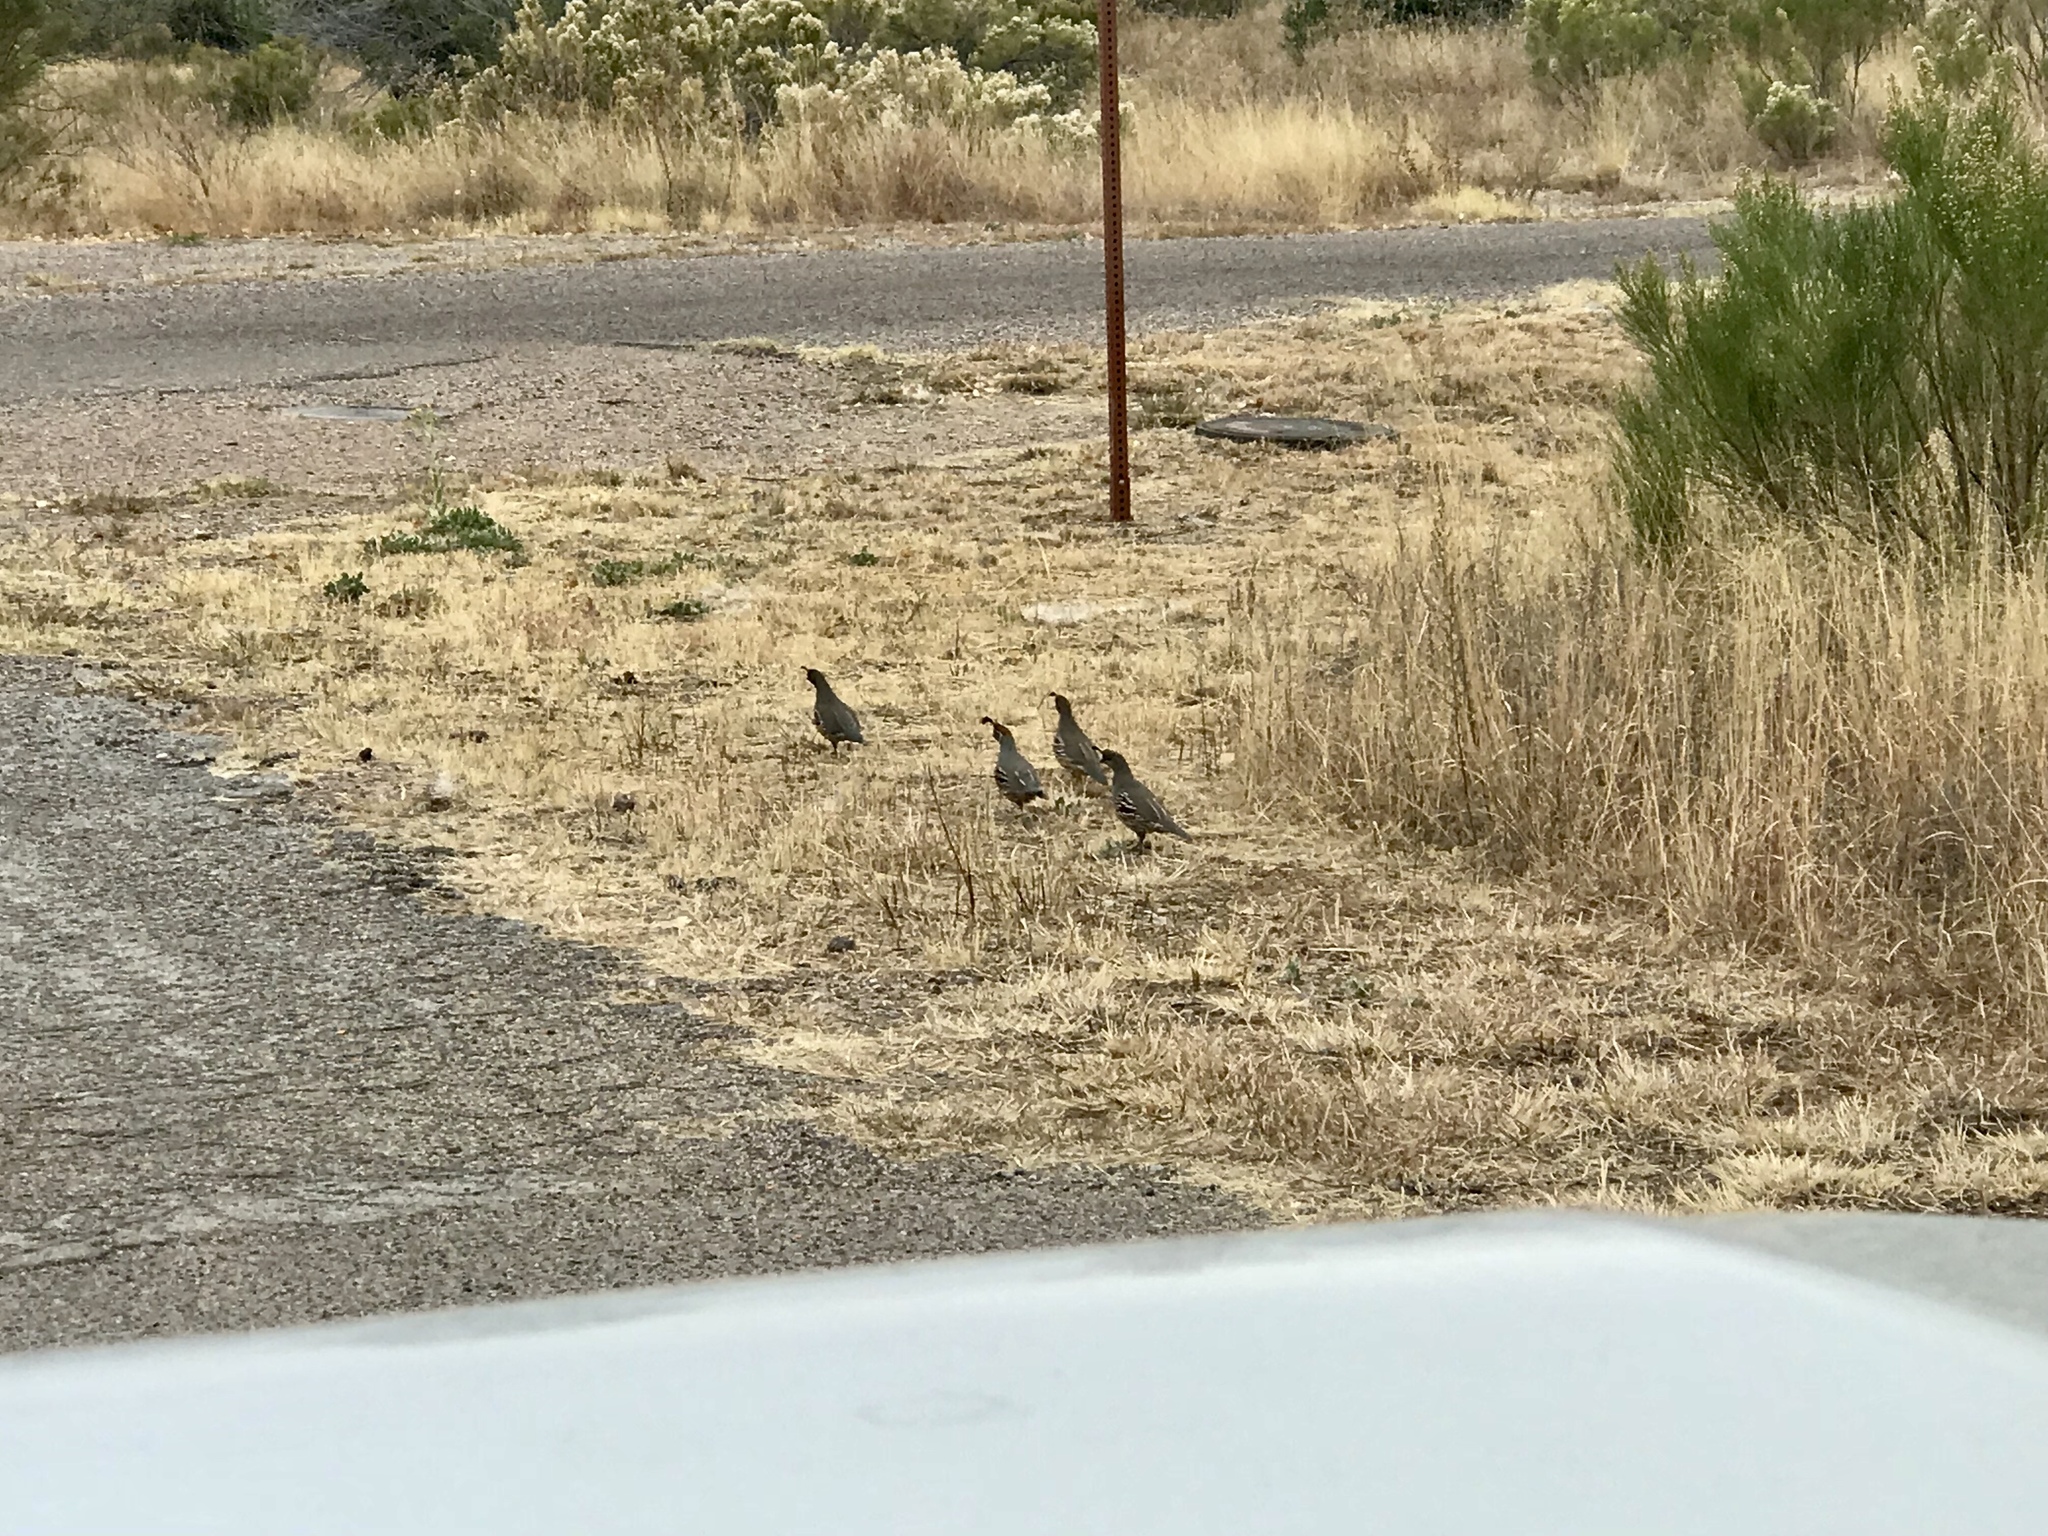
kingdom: Animalia
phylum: Chordata
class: Aves
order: Galliformes
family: Odontophoridae
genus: Callipepla
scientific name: Callipepla gambelii
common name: Gambel's quail
